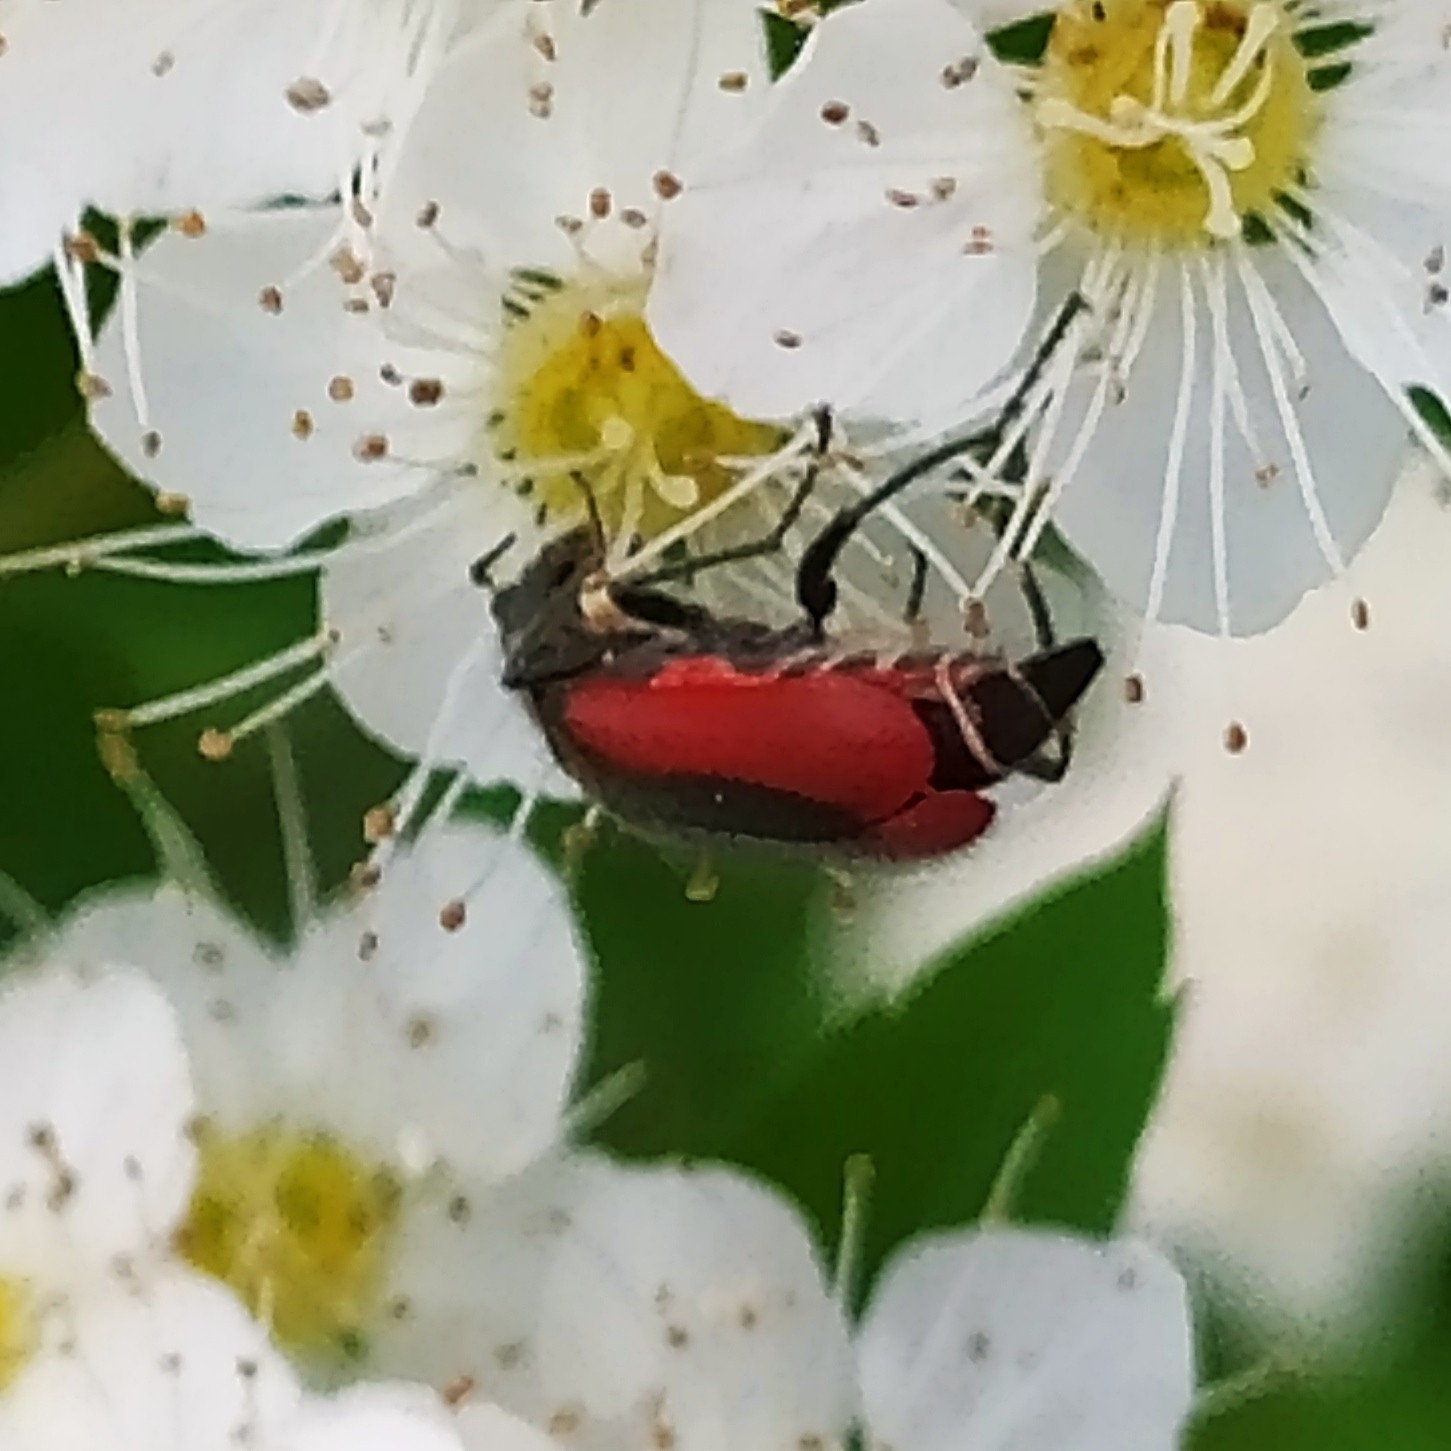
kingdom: Animalia
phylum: Arthropoda
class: Insecta
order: Coleoptera
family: Melyridae
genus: Malachius
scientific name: Malachius aeneus
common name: Scarlet malachite beetle
